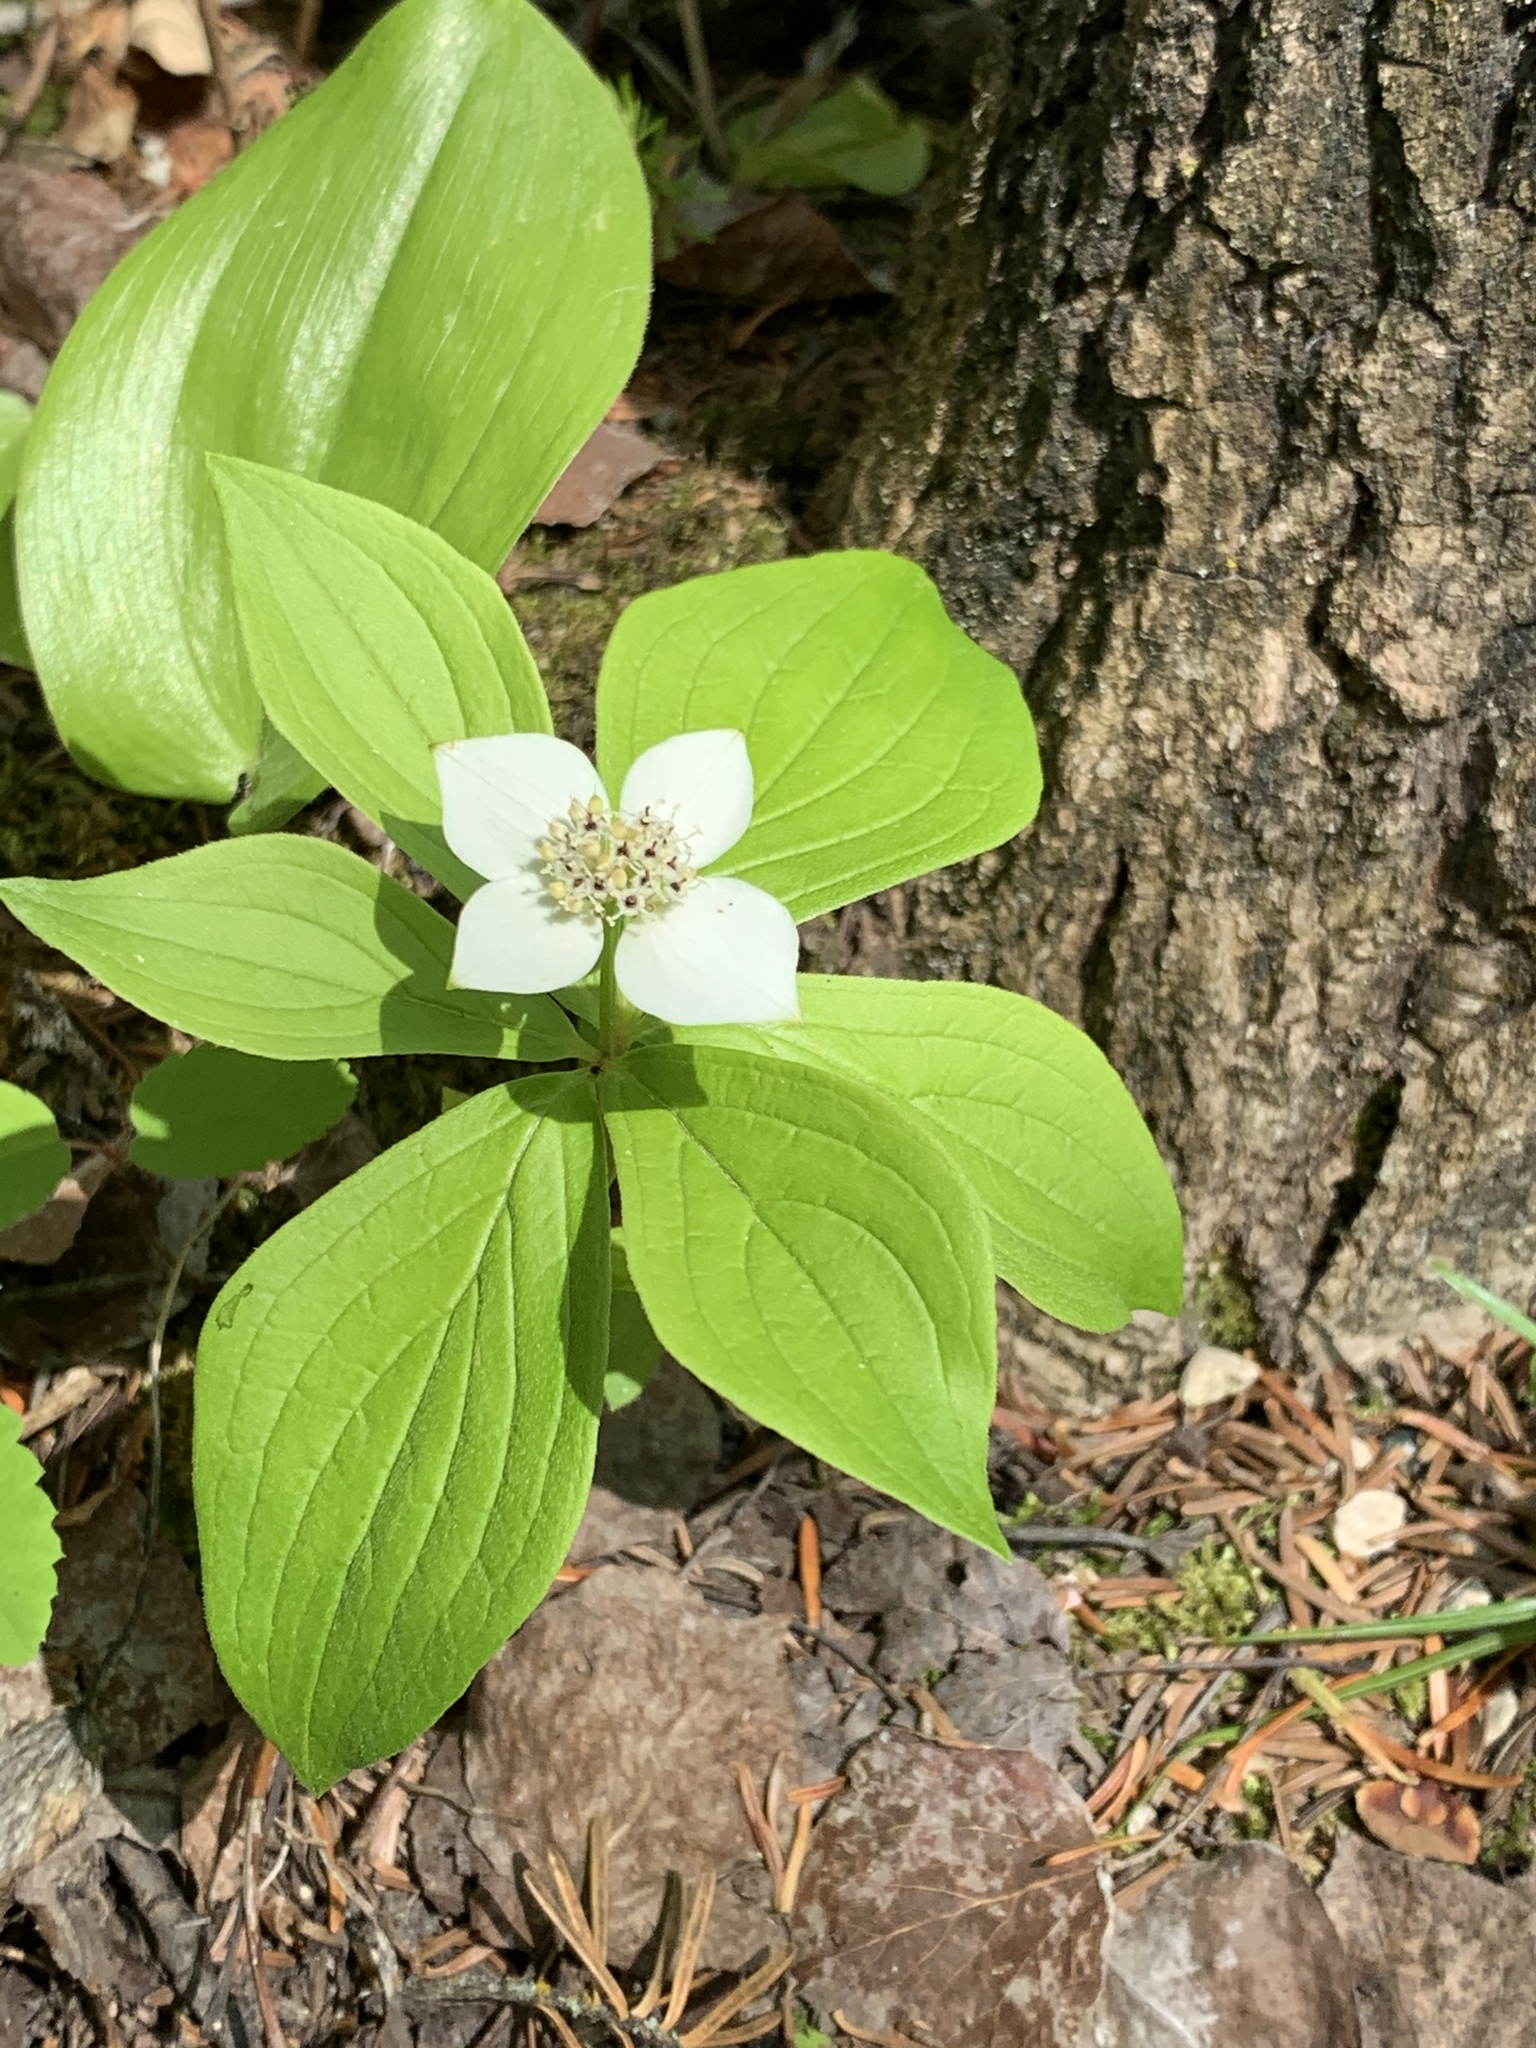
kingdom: Plantae
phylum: Tracheophyta
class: Magnoliopsida
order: Cornales
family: Cornaceae
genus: Cornus
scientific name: Cornus canadensis
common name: Creeping dogwood
